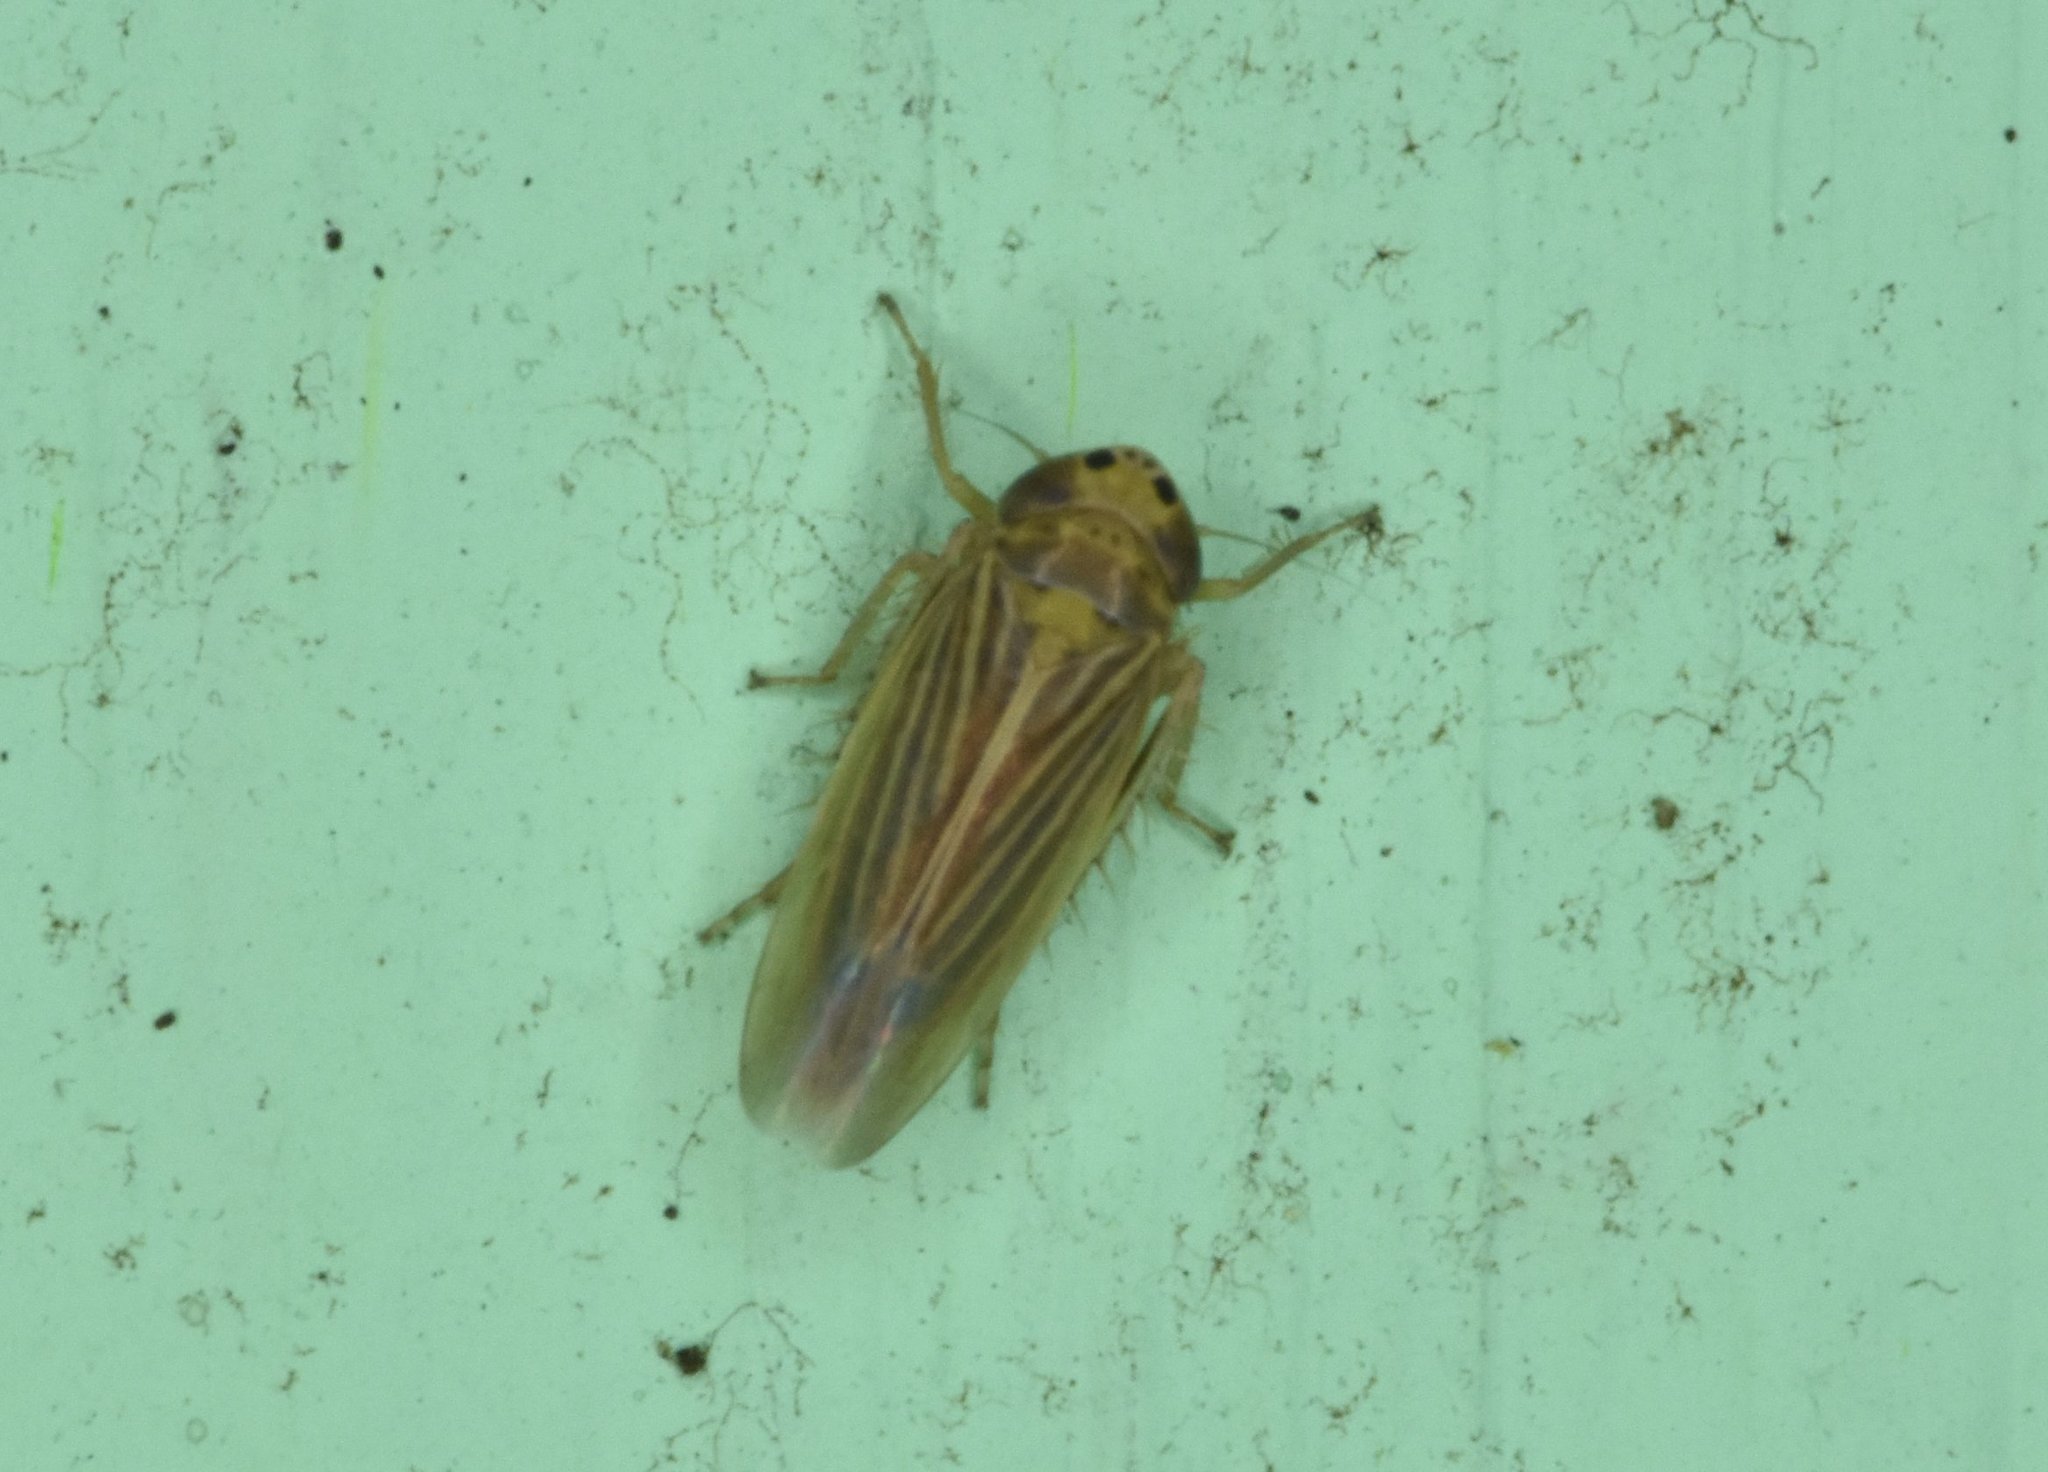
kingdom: Animalia
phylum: Arthropoda
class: Insecta
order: Hemiptera
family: Cicadellidae
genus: Graminella
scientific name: Graminella cognita
